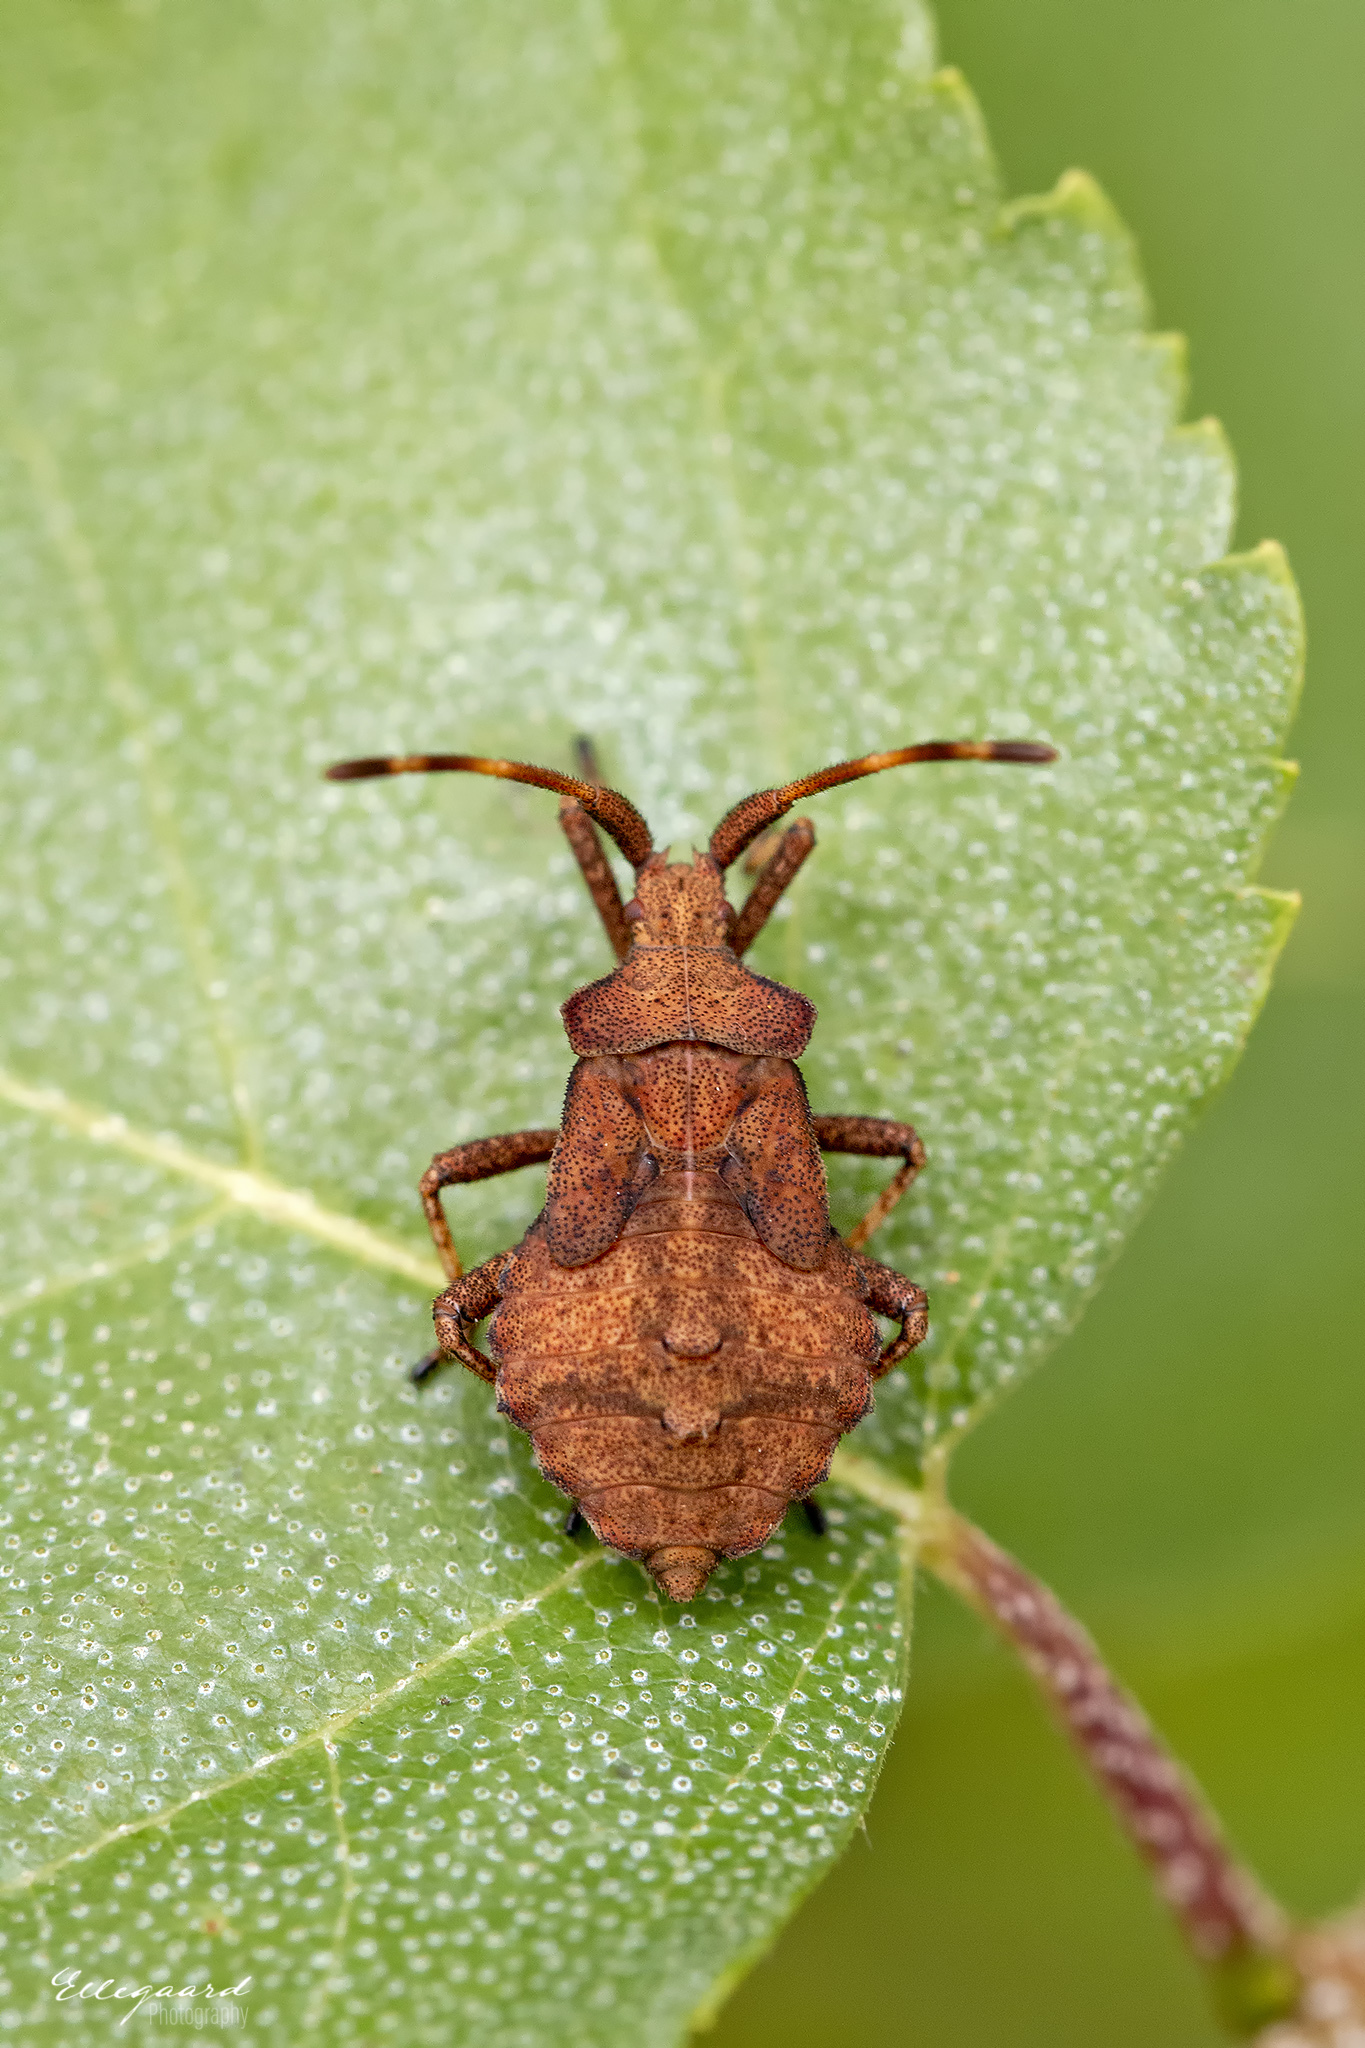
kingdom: Animalia
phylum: Arthropoda
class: Insecta
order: Hemiptera
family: Coreidae
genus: Coreus
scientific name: Coreus marginatus
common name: Dock bug
